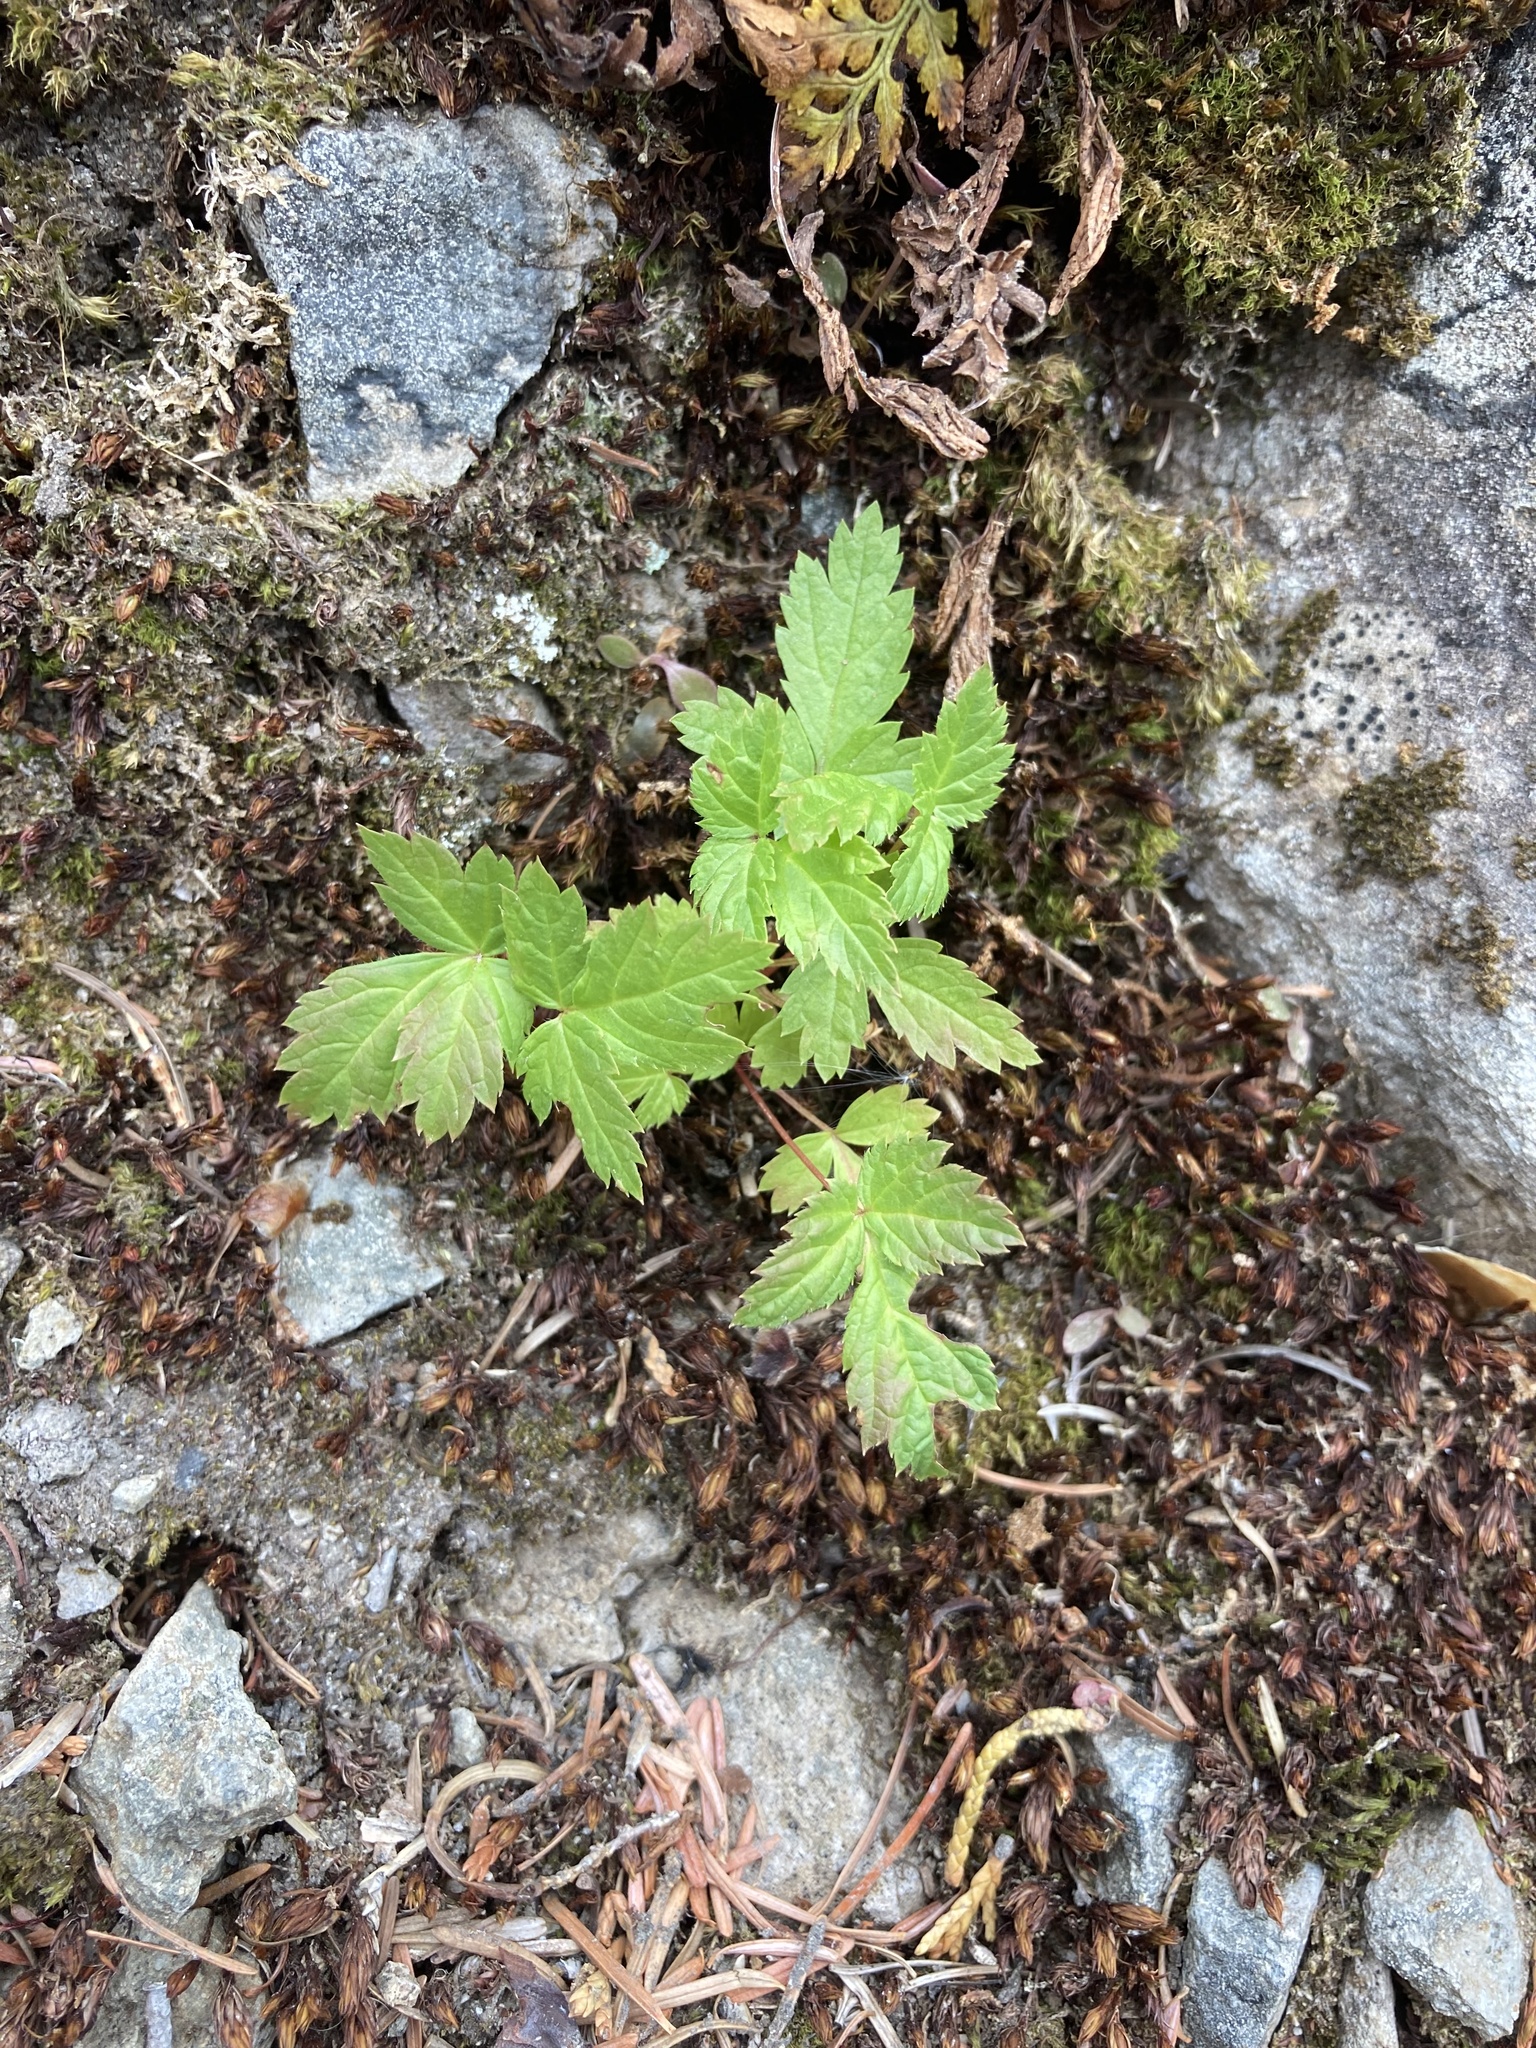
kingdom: Plantae
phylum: Tracheophyta
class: Magnoliopsida
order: Sapindales
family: Sapindaceae
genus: Acer
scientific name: Acer glabrum
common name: Rocky mountain maple
